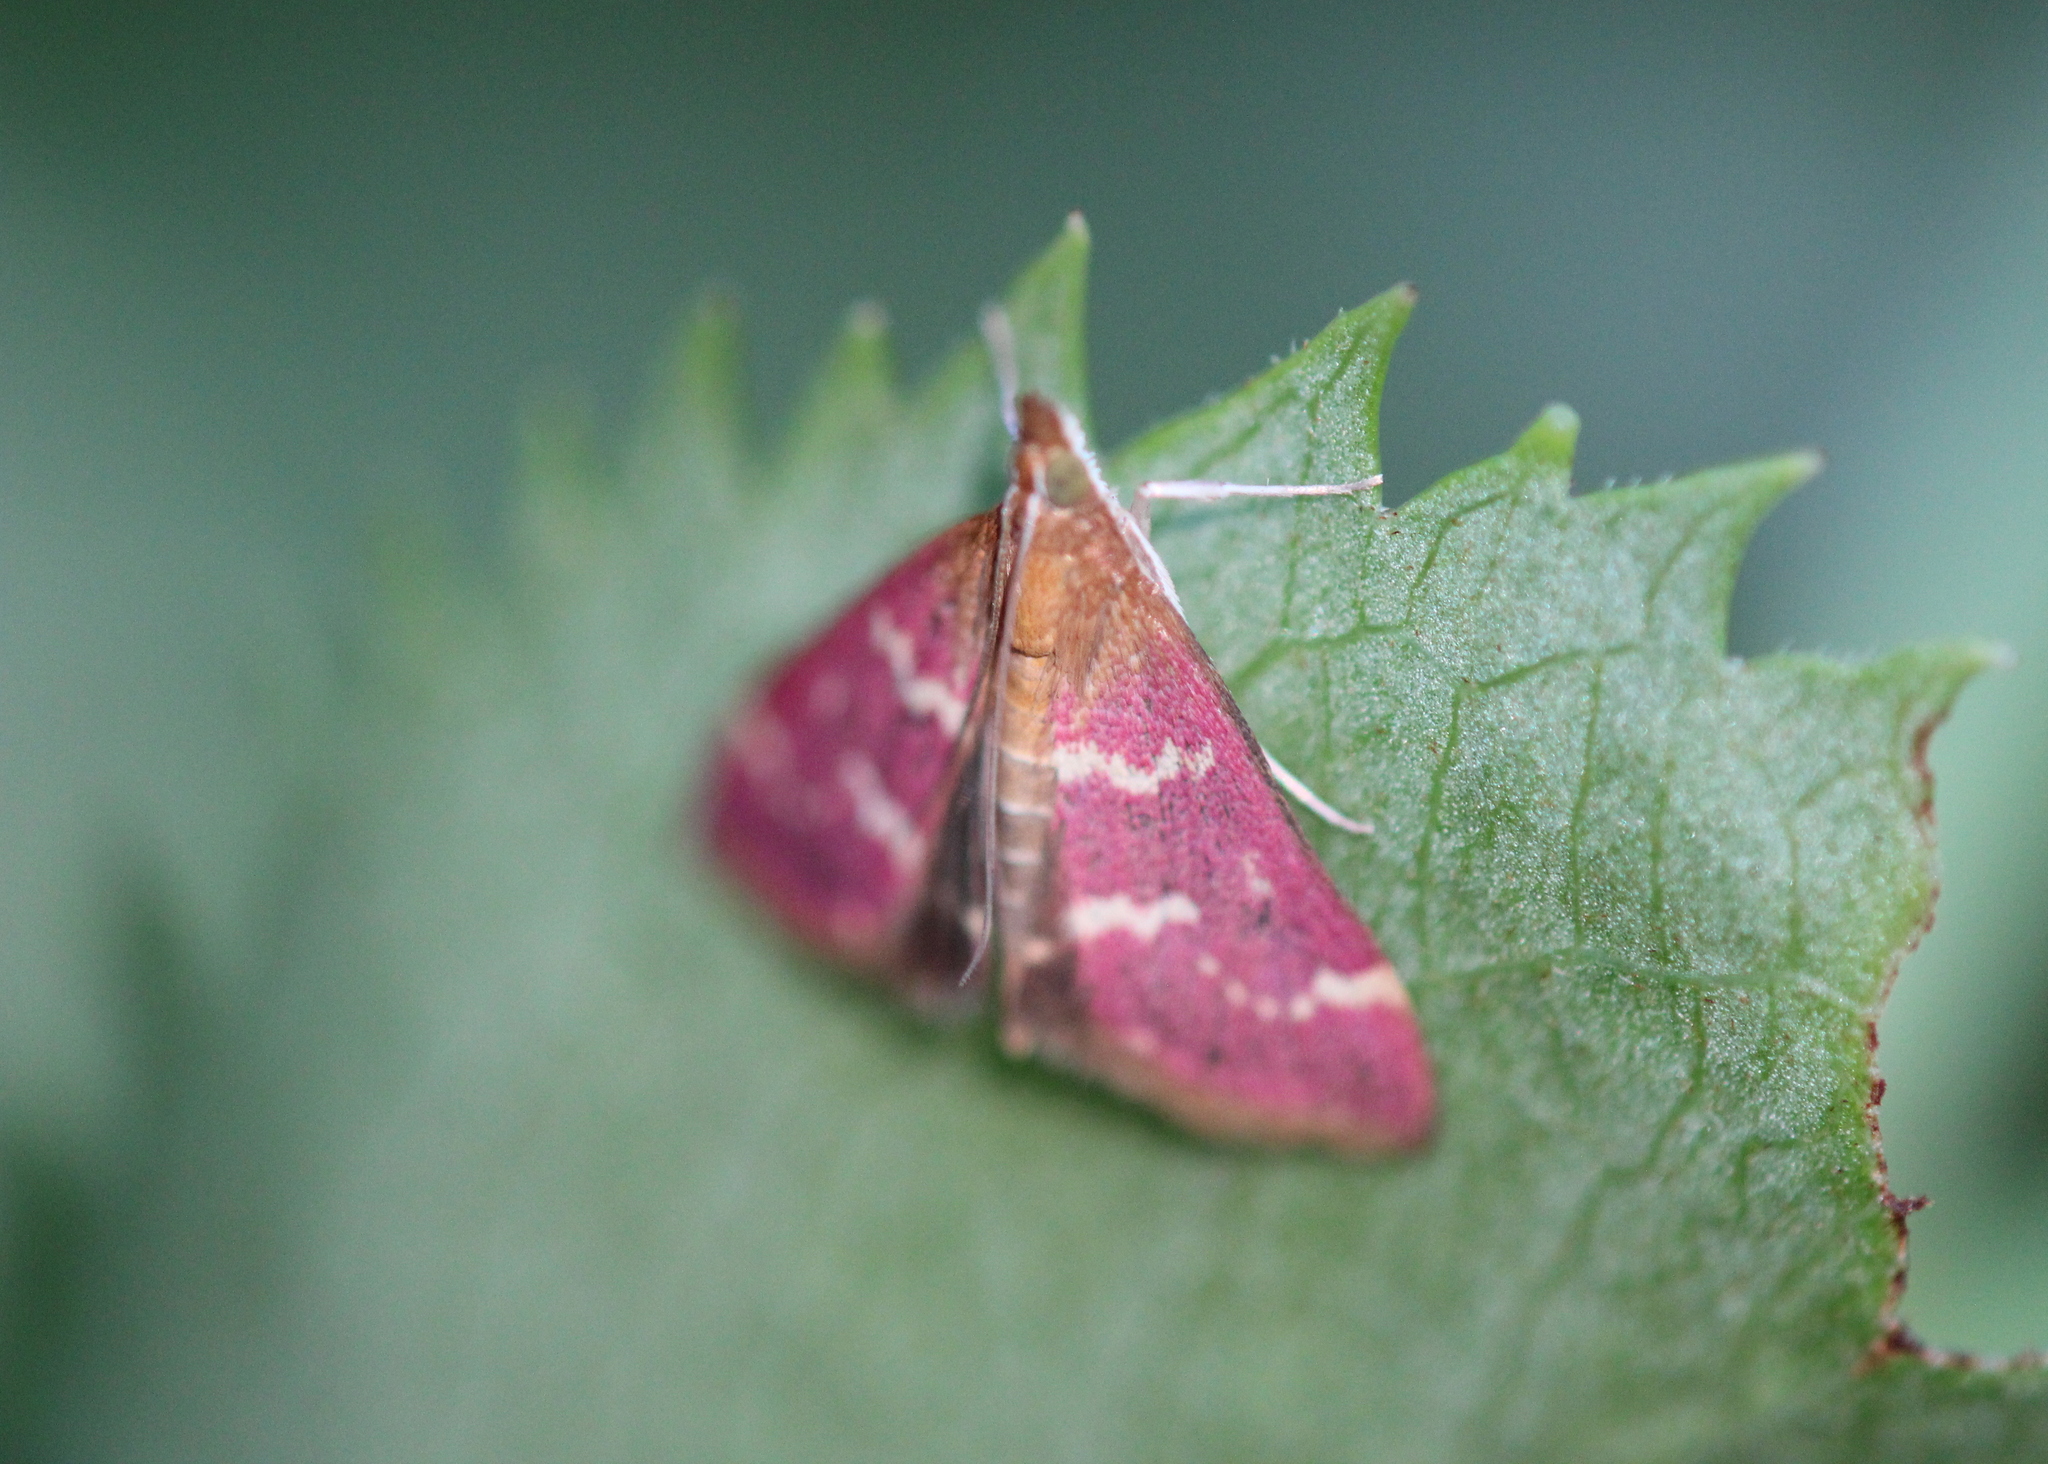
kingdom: Animalia
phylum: Arthropoda
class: Insecta
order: Lepidoptera
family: Crambidae
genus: Pyrausta
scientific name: Pyrausta signatalis
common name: Raspberry pyrausta moth
